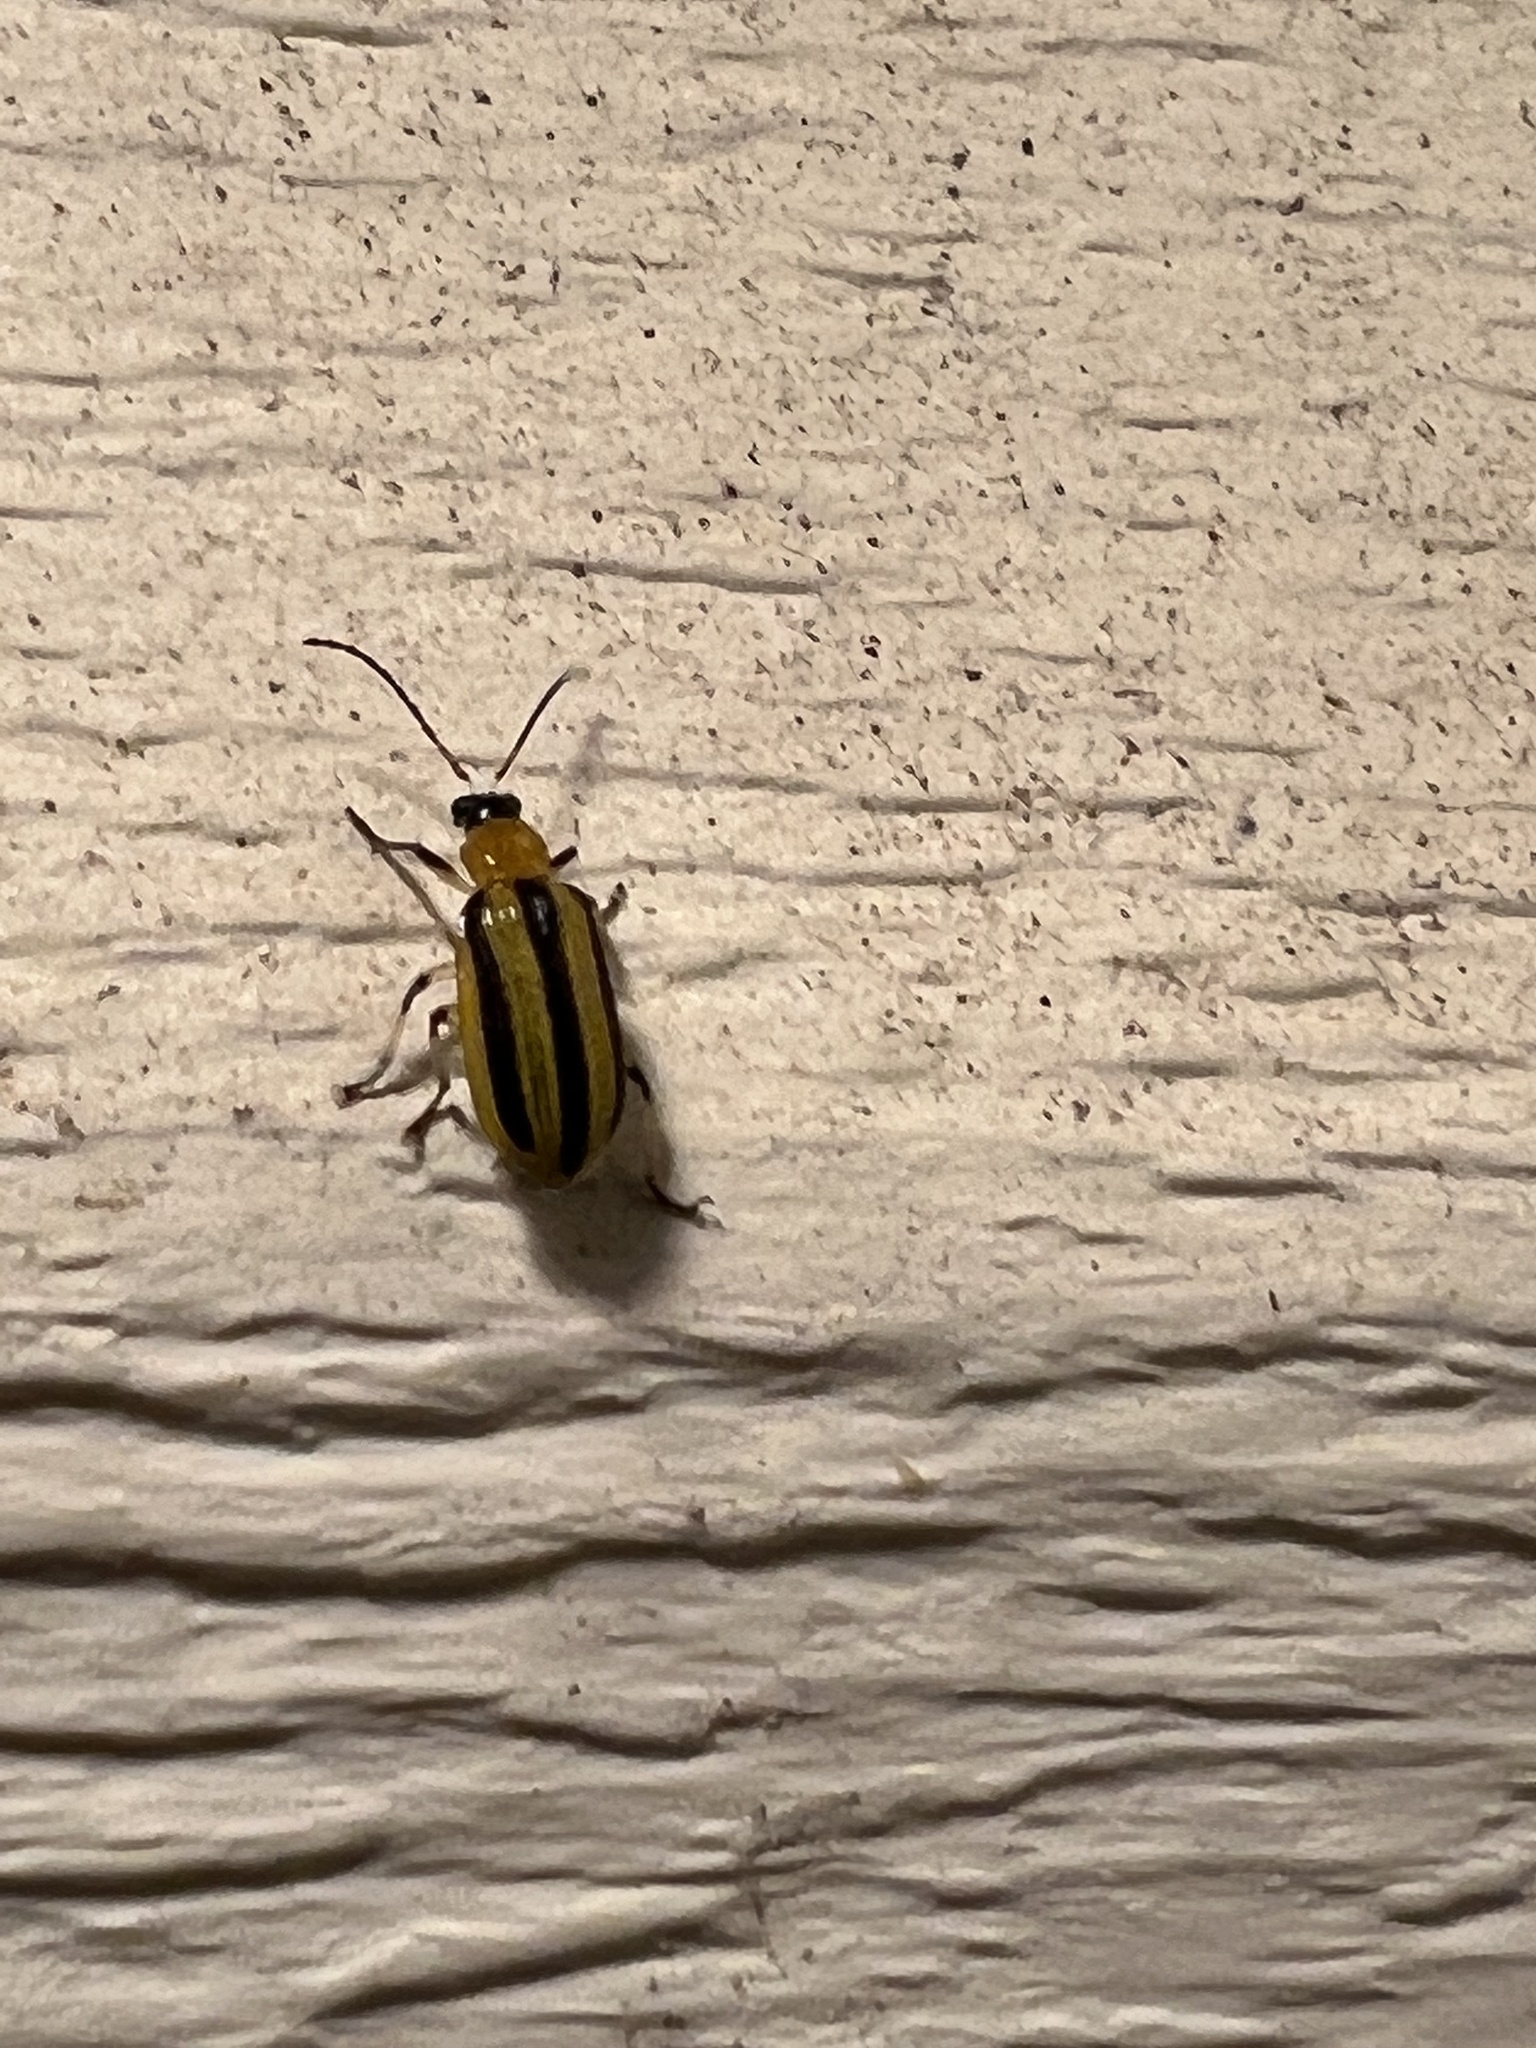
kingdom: Animalia
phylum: Arthropoda
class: Insecta
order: Coleoptera
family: Chrysomelidae
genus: Acalymma
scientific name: Acalymma vittatum
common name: Striped cucumber beetle
